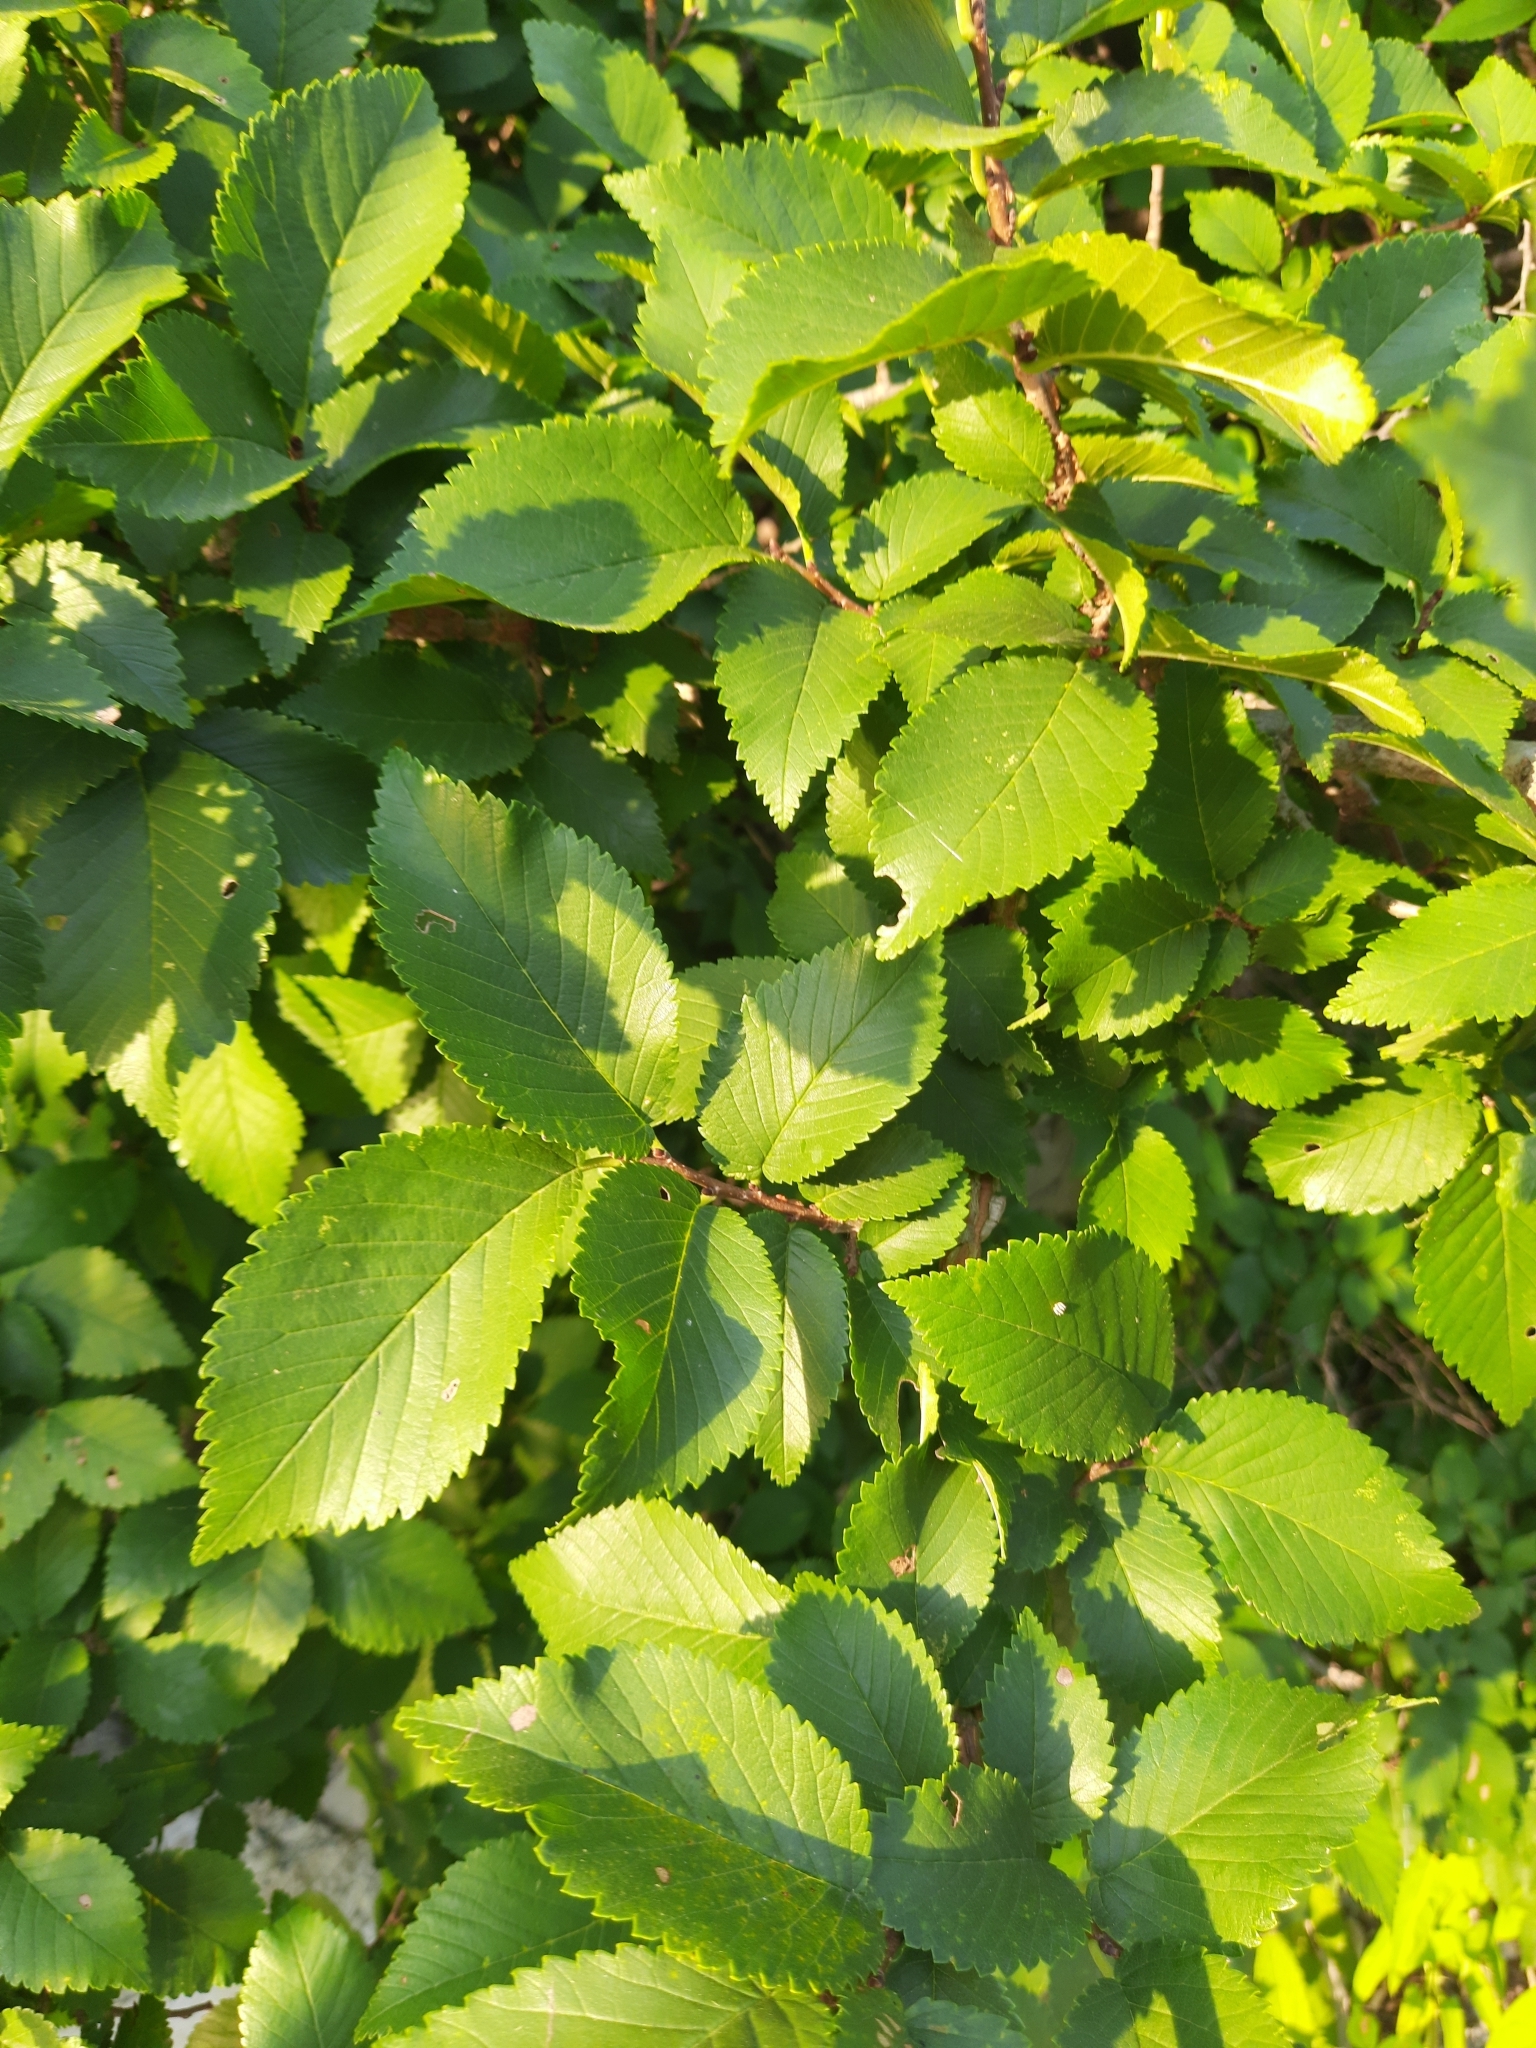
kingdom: Plantae
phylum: Tracheophyta
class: Magnoliopsida
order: Rosales
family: Ulmaceae
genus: Ulmus
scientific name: Ulmus minor
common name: Small-leaved elm
